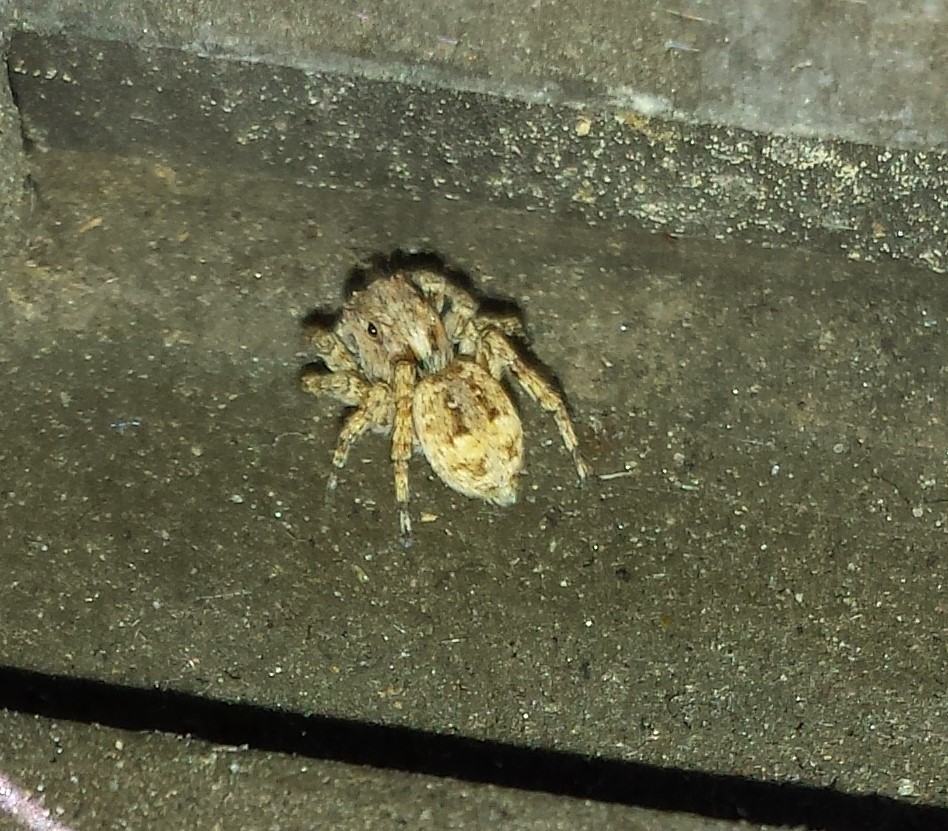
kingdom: Animalia
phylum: Arthropoda
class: Arachnida
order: Araneae
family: Salticidae
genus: Attulus
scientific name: Attulus fasciger
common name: Asiatic wall jumping spider
